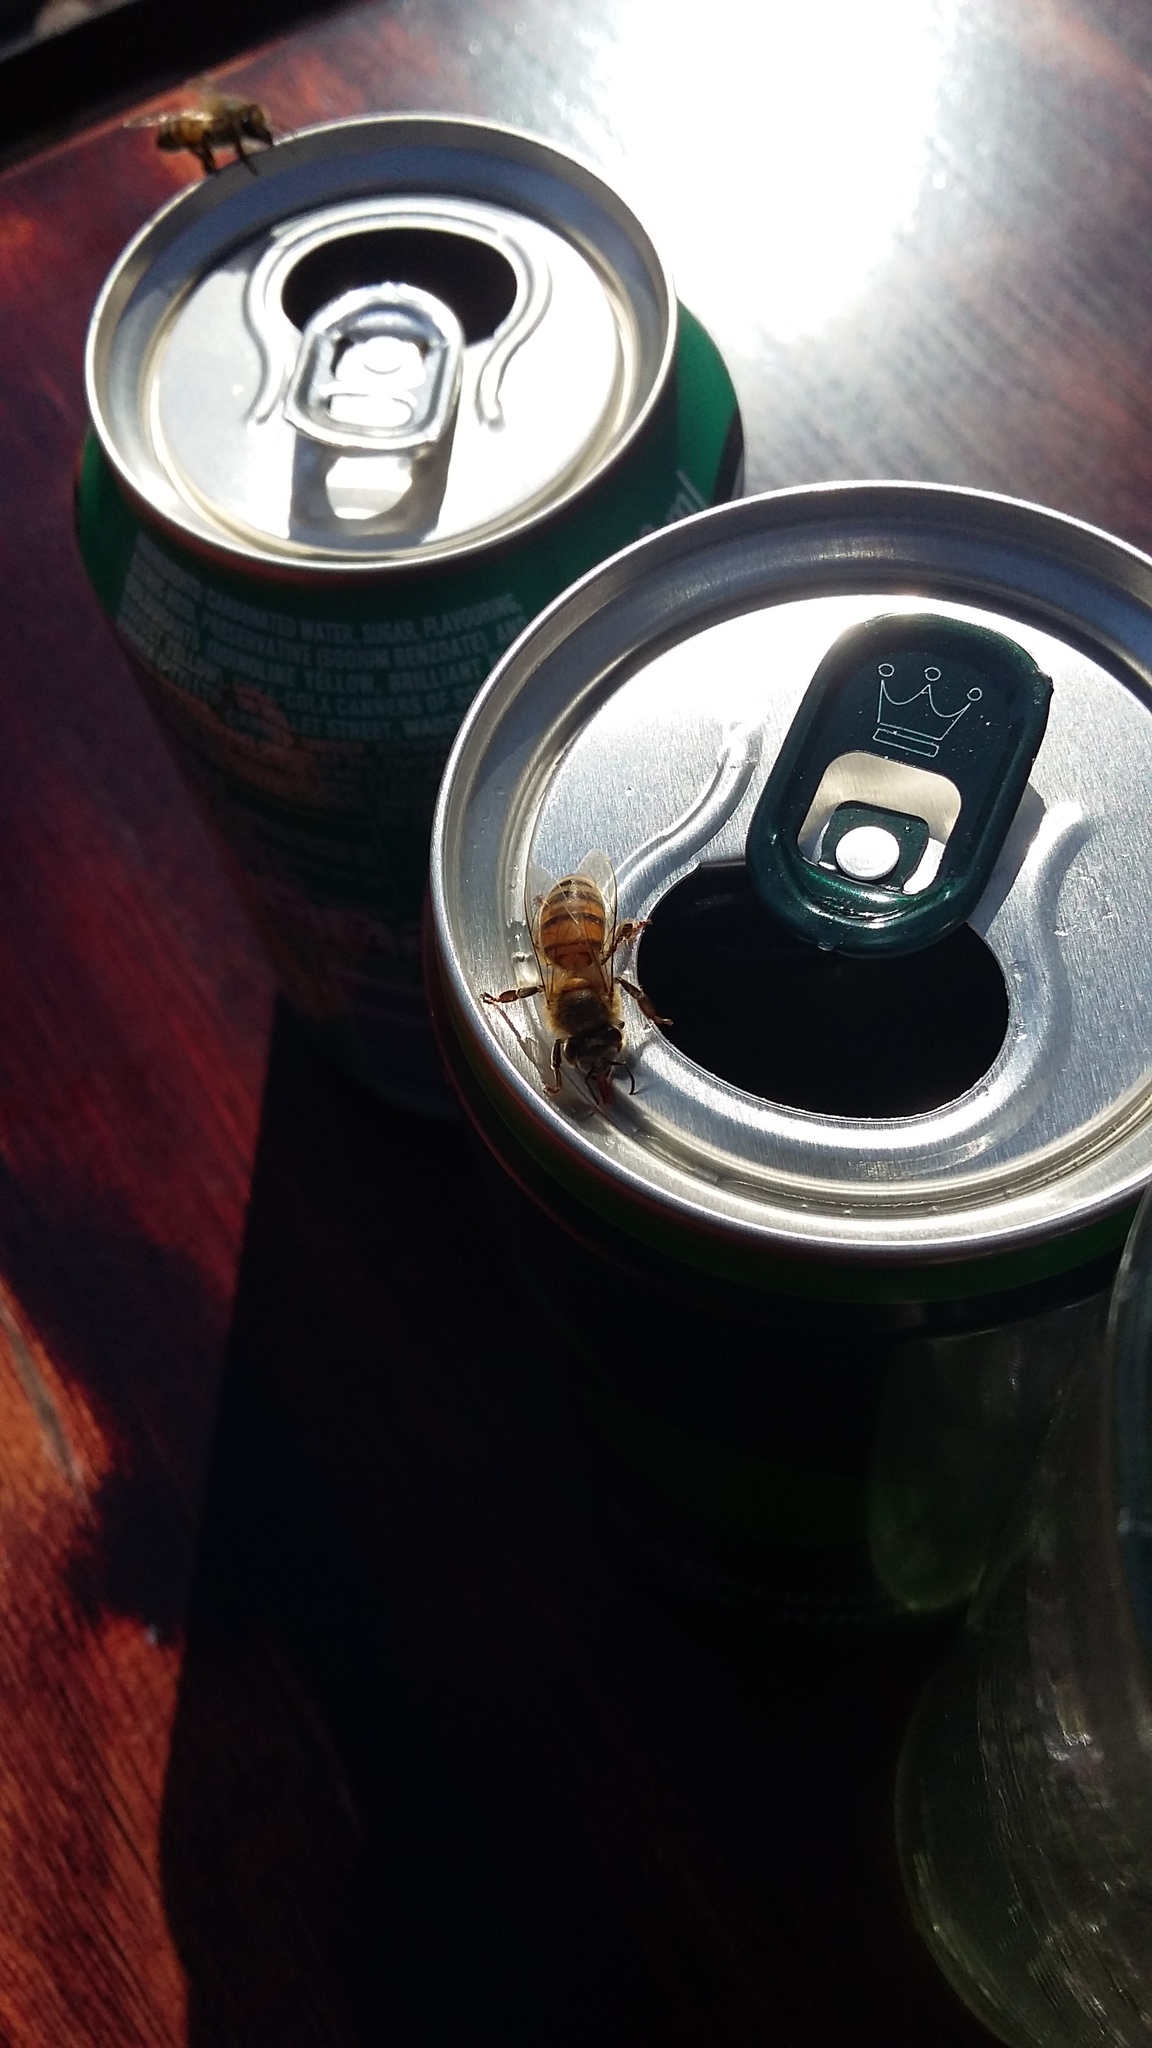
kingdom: Animalia
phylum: Arthropoda
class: Insecta
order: Hymenoptera
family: Apidae
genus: Apis
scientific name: Apis mellifera
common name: Honey bee
